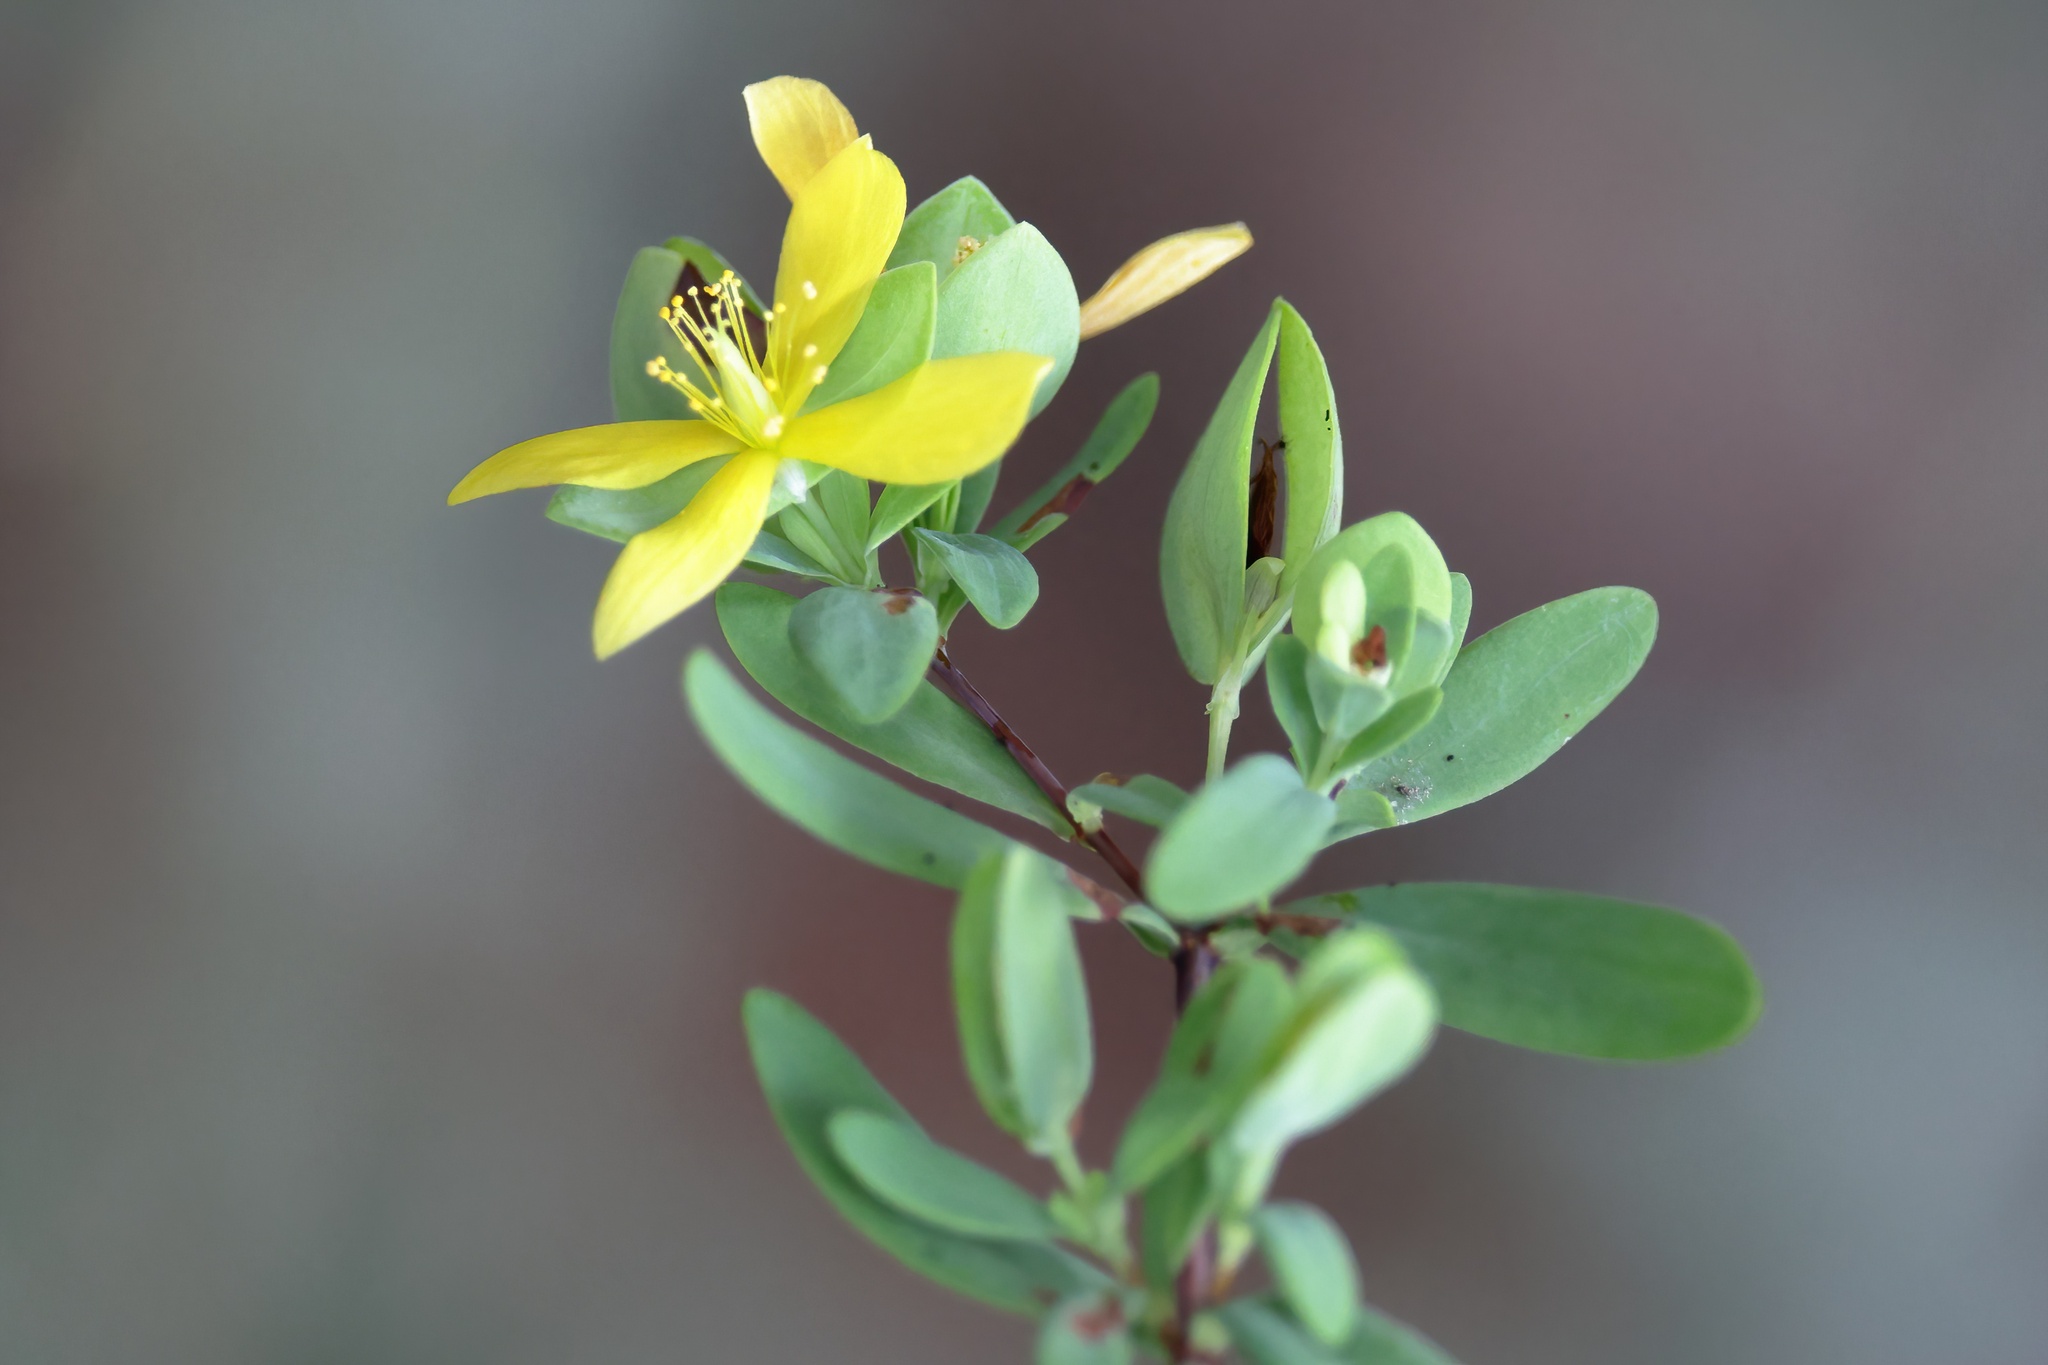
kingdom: Plantae
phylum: Tracheophyta
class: Magnoliopsida
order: Malpighiales
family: Hypericaceae
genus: Hypericum
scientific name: Hypericum hypericoides
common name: St. andrew's cross
